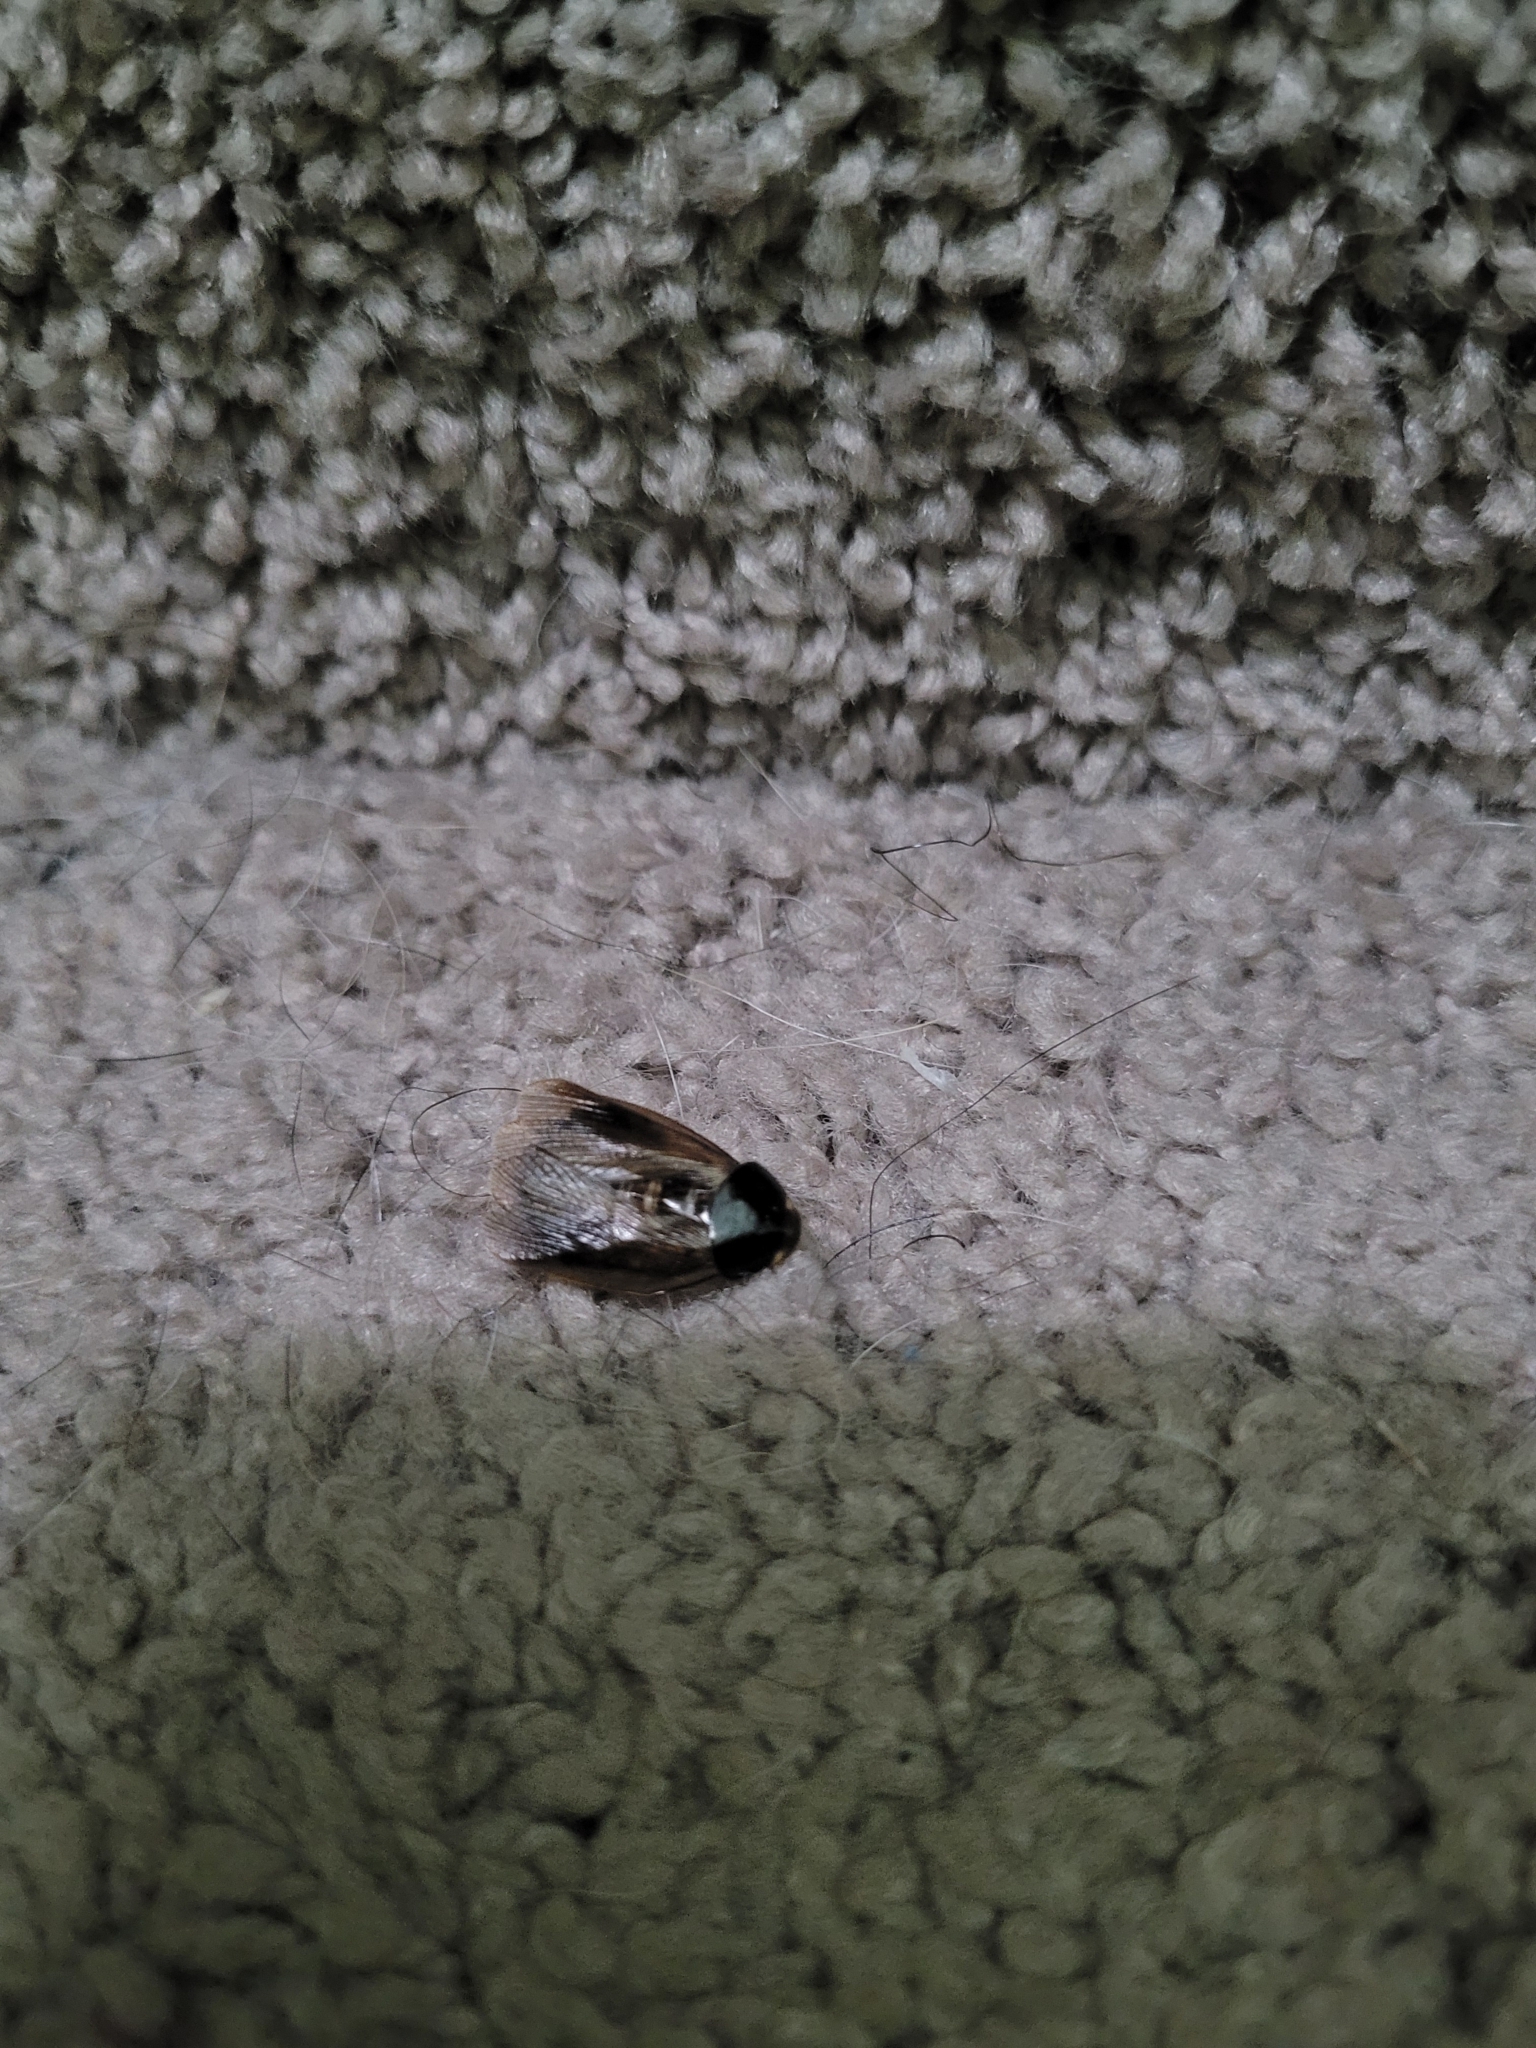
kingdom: Animalia
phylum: Arthropoda
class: Insecta
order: Blattodea
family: Blaberidae
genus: Pycnoscelus
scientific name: Pycnoscelus surinamensis
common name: Surinam cockroach
